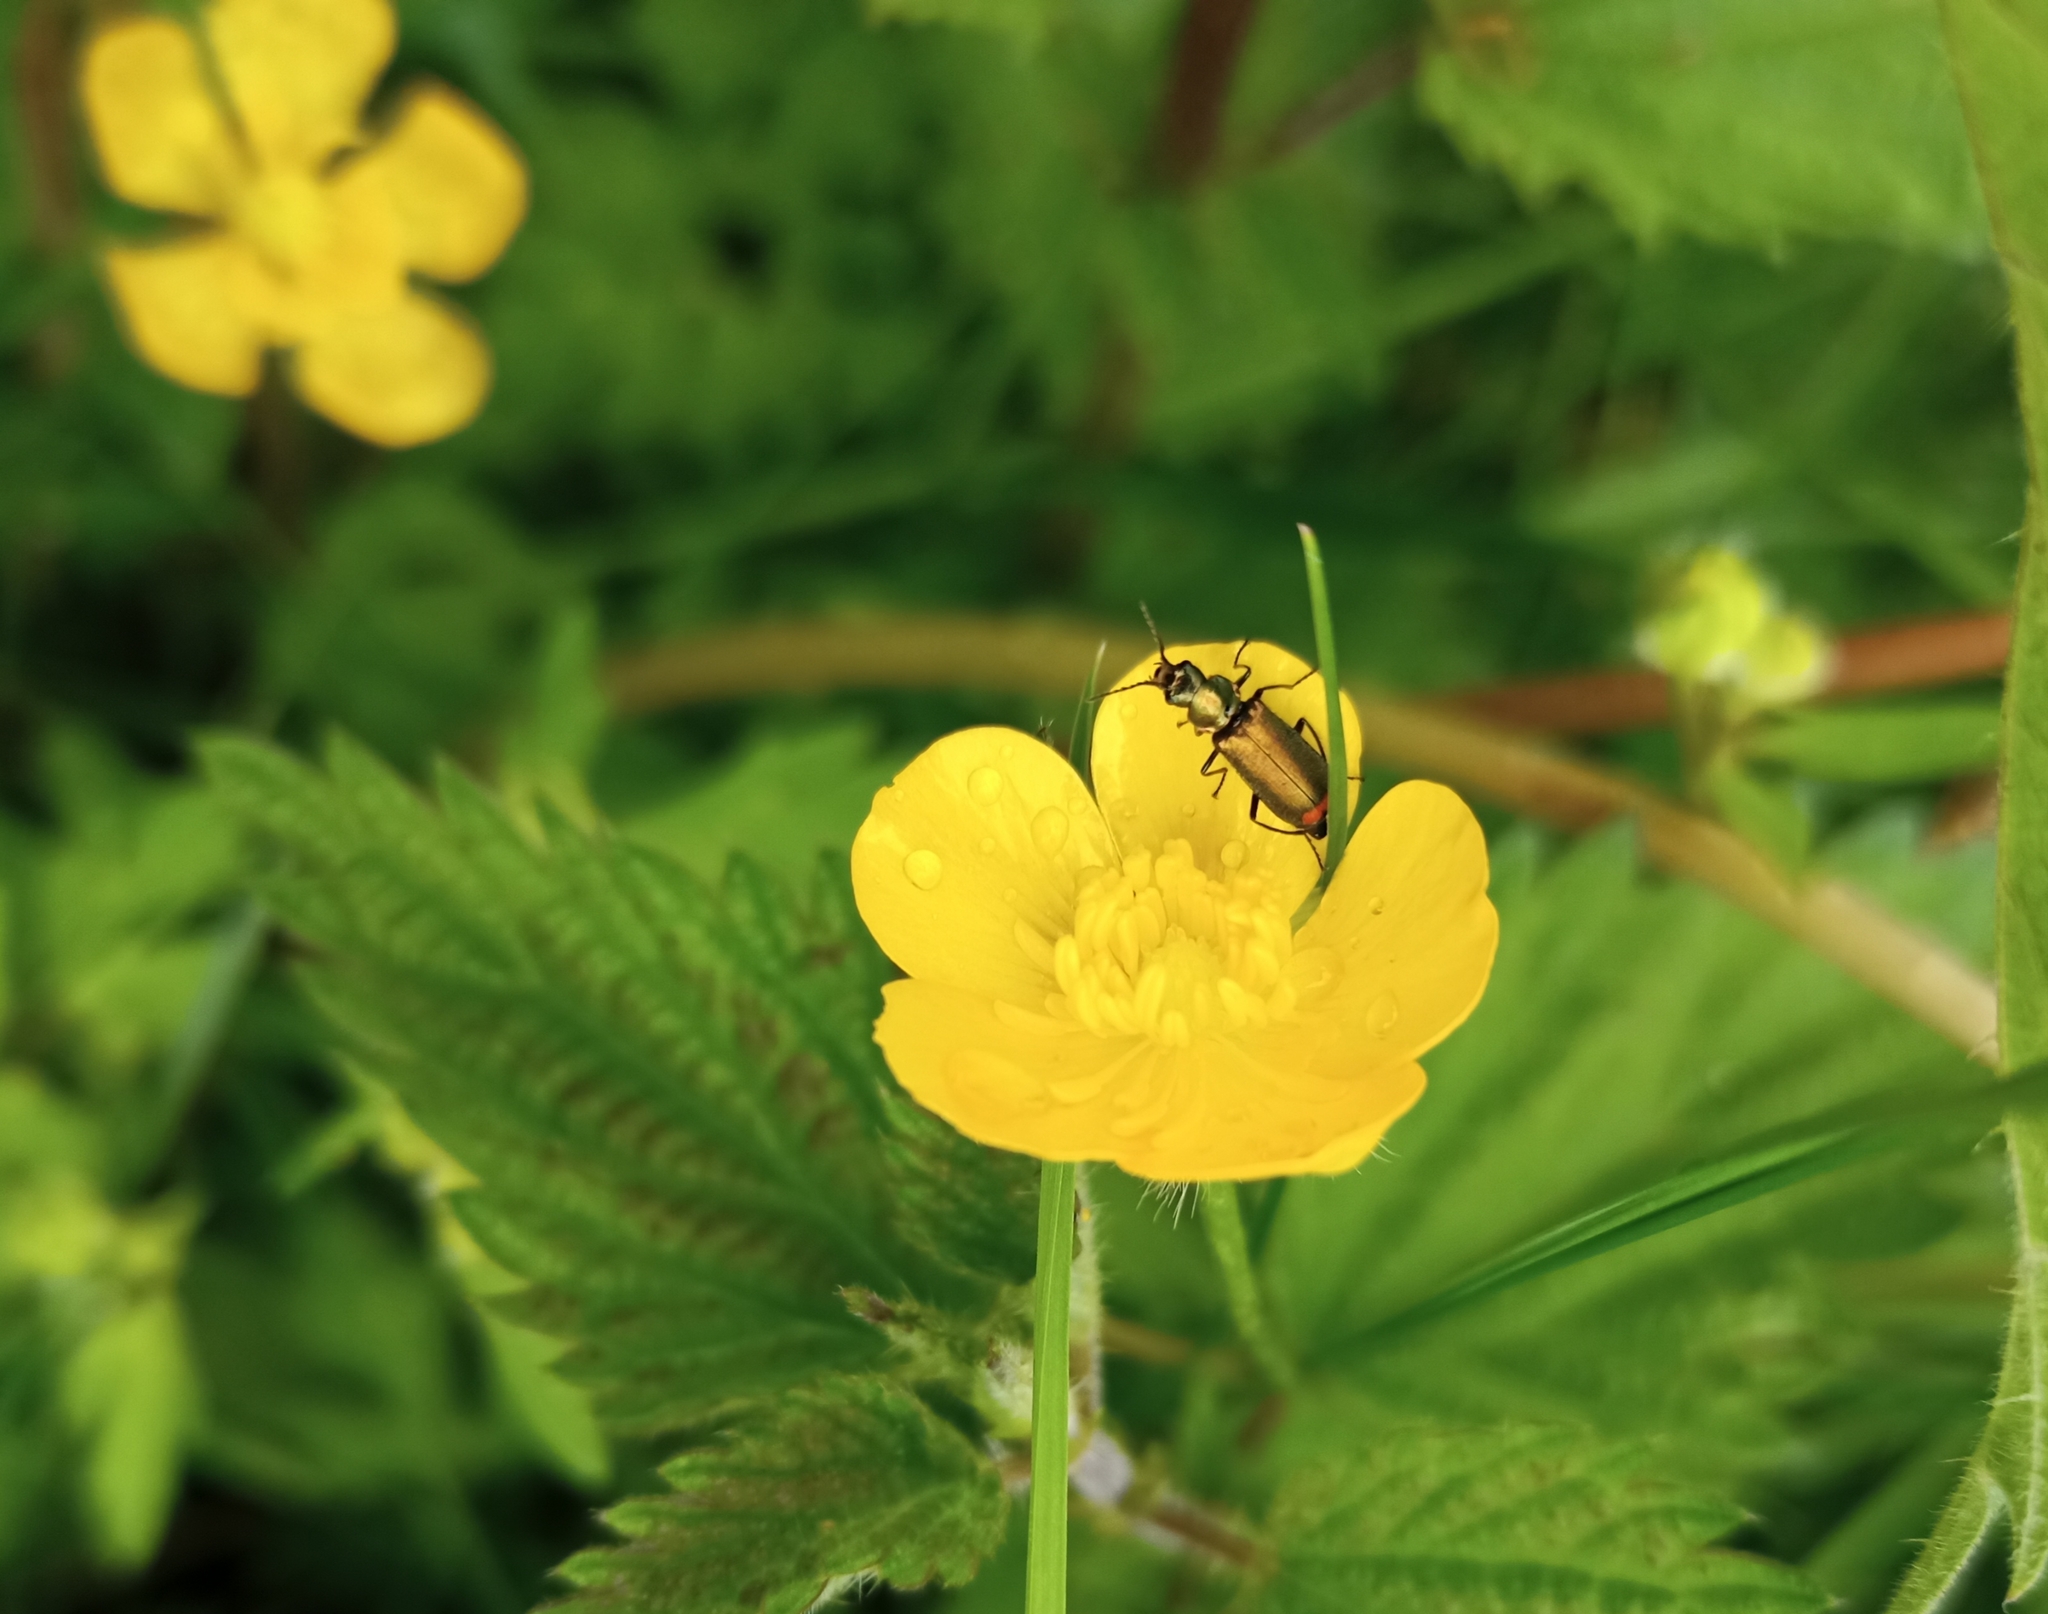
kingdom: Animalia
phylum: Arthropoda
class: Insecta
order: Coleoptera
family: Melyridae
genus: Malachius
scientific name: Malachius bipustulatus
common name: Malachite beetle
